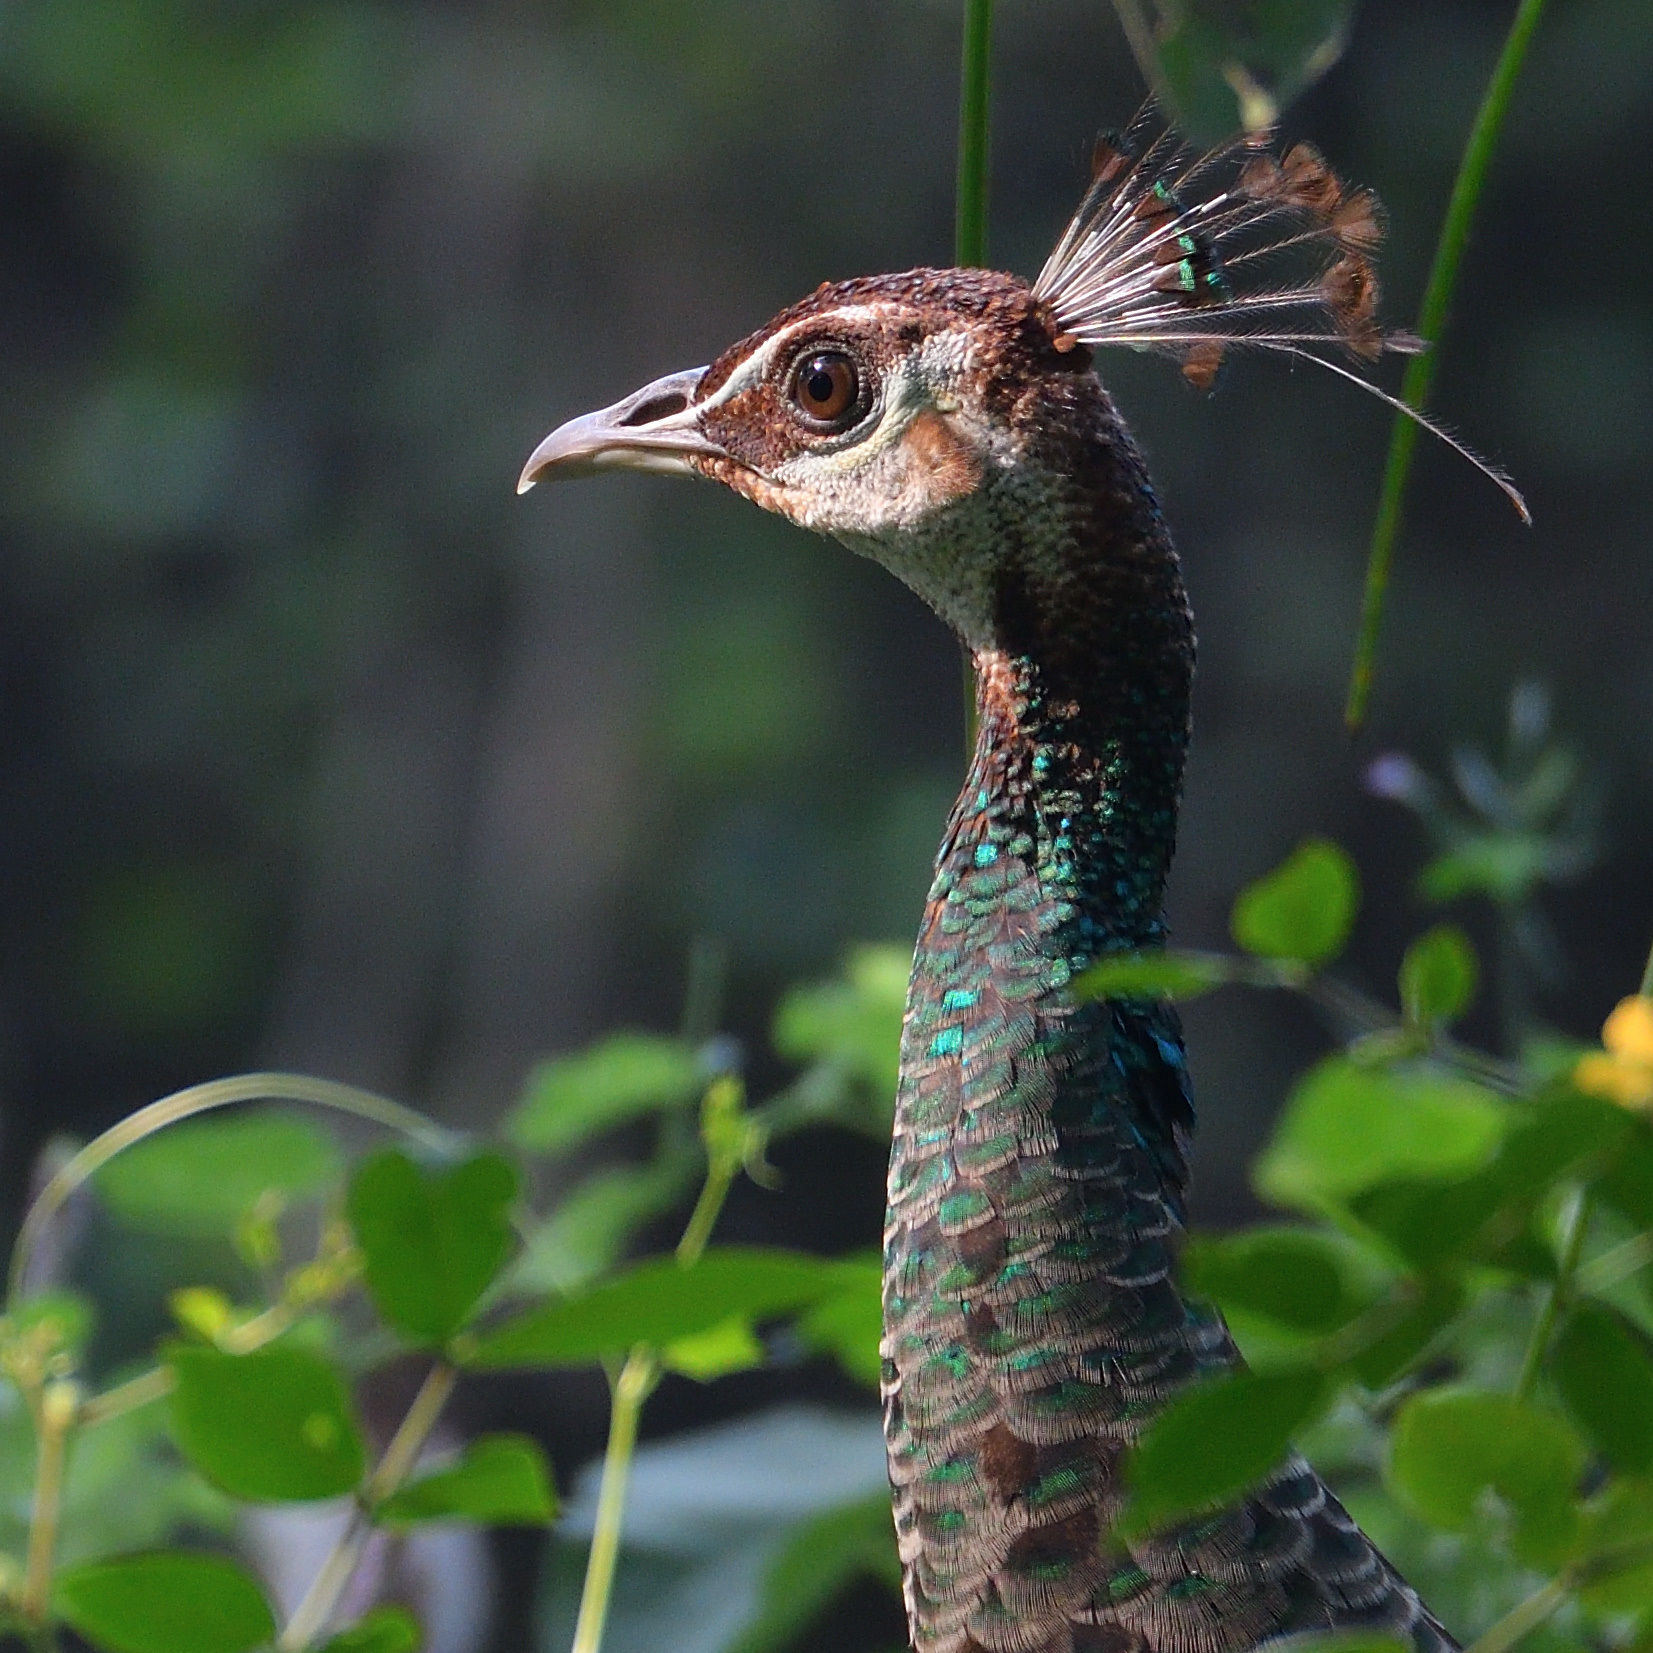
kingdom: Animalia
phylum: Chordata
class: Aves
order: Galliformes
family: Phasianidae
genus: Pavo
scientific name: Pavo cristatus
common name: Indian peafowl
